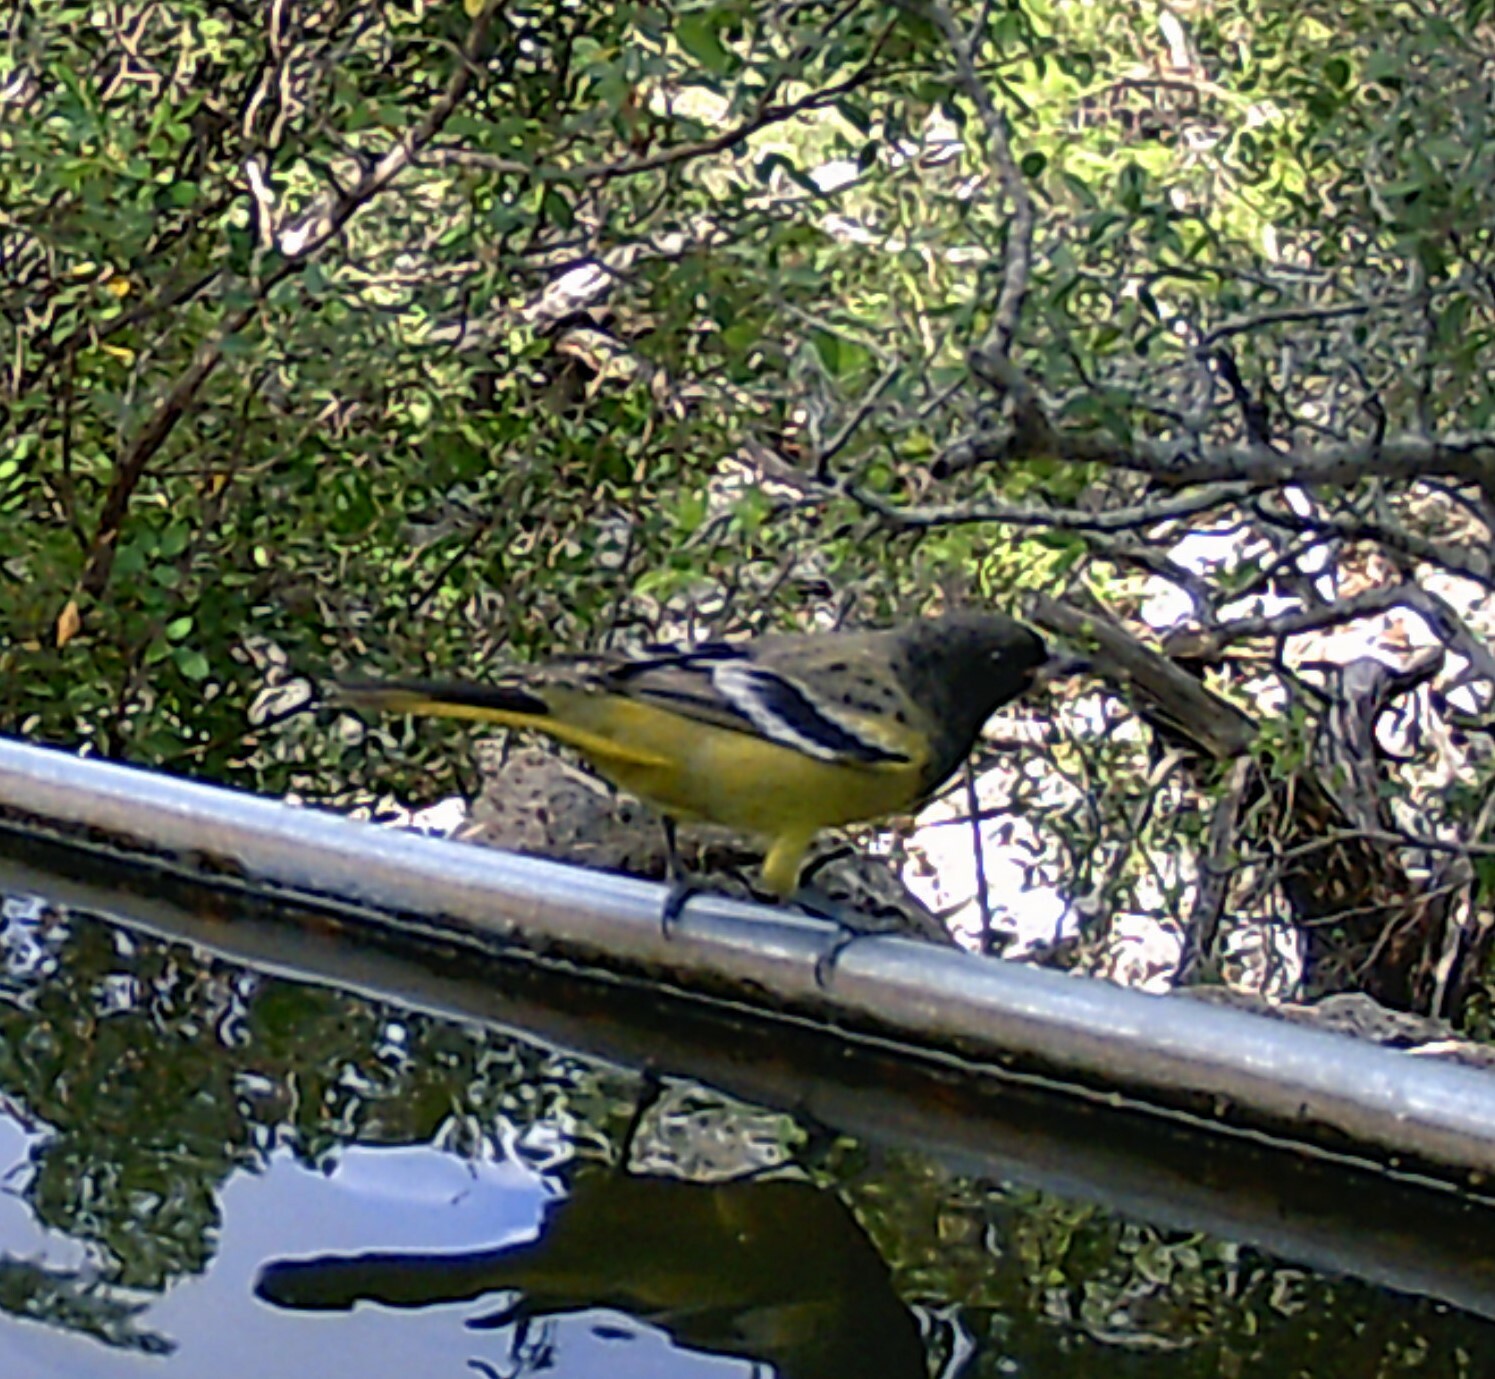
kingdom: Animalia
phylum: Chordata
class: Aves
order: Passeriformes
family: Icteridae
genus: Icterus
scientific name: Icterus parisorum
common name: Scott's oriole
